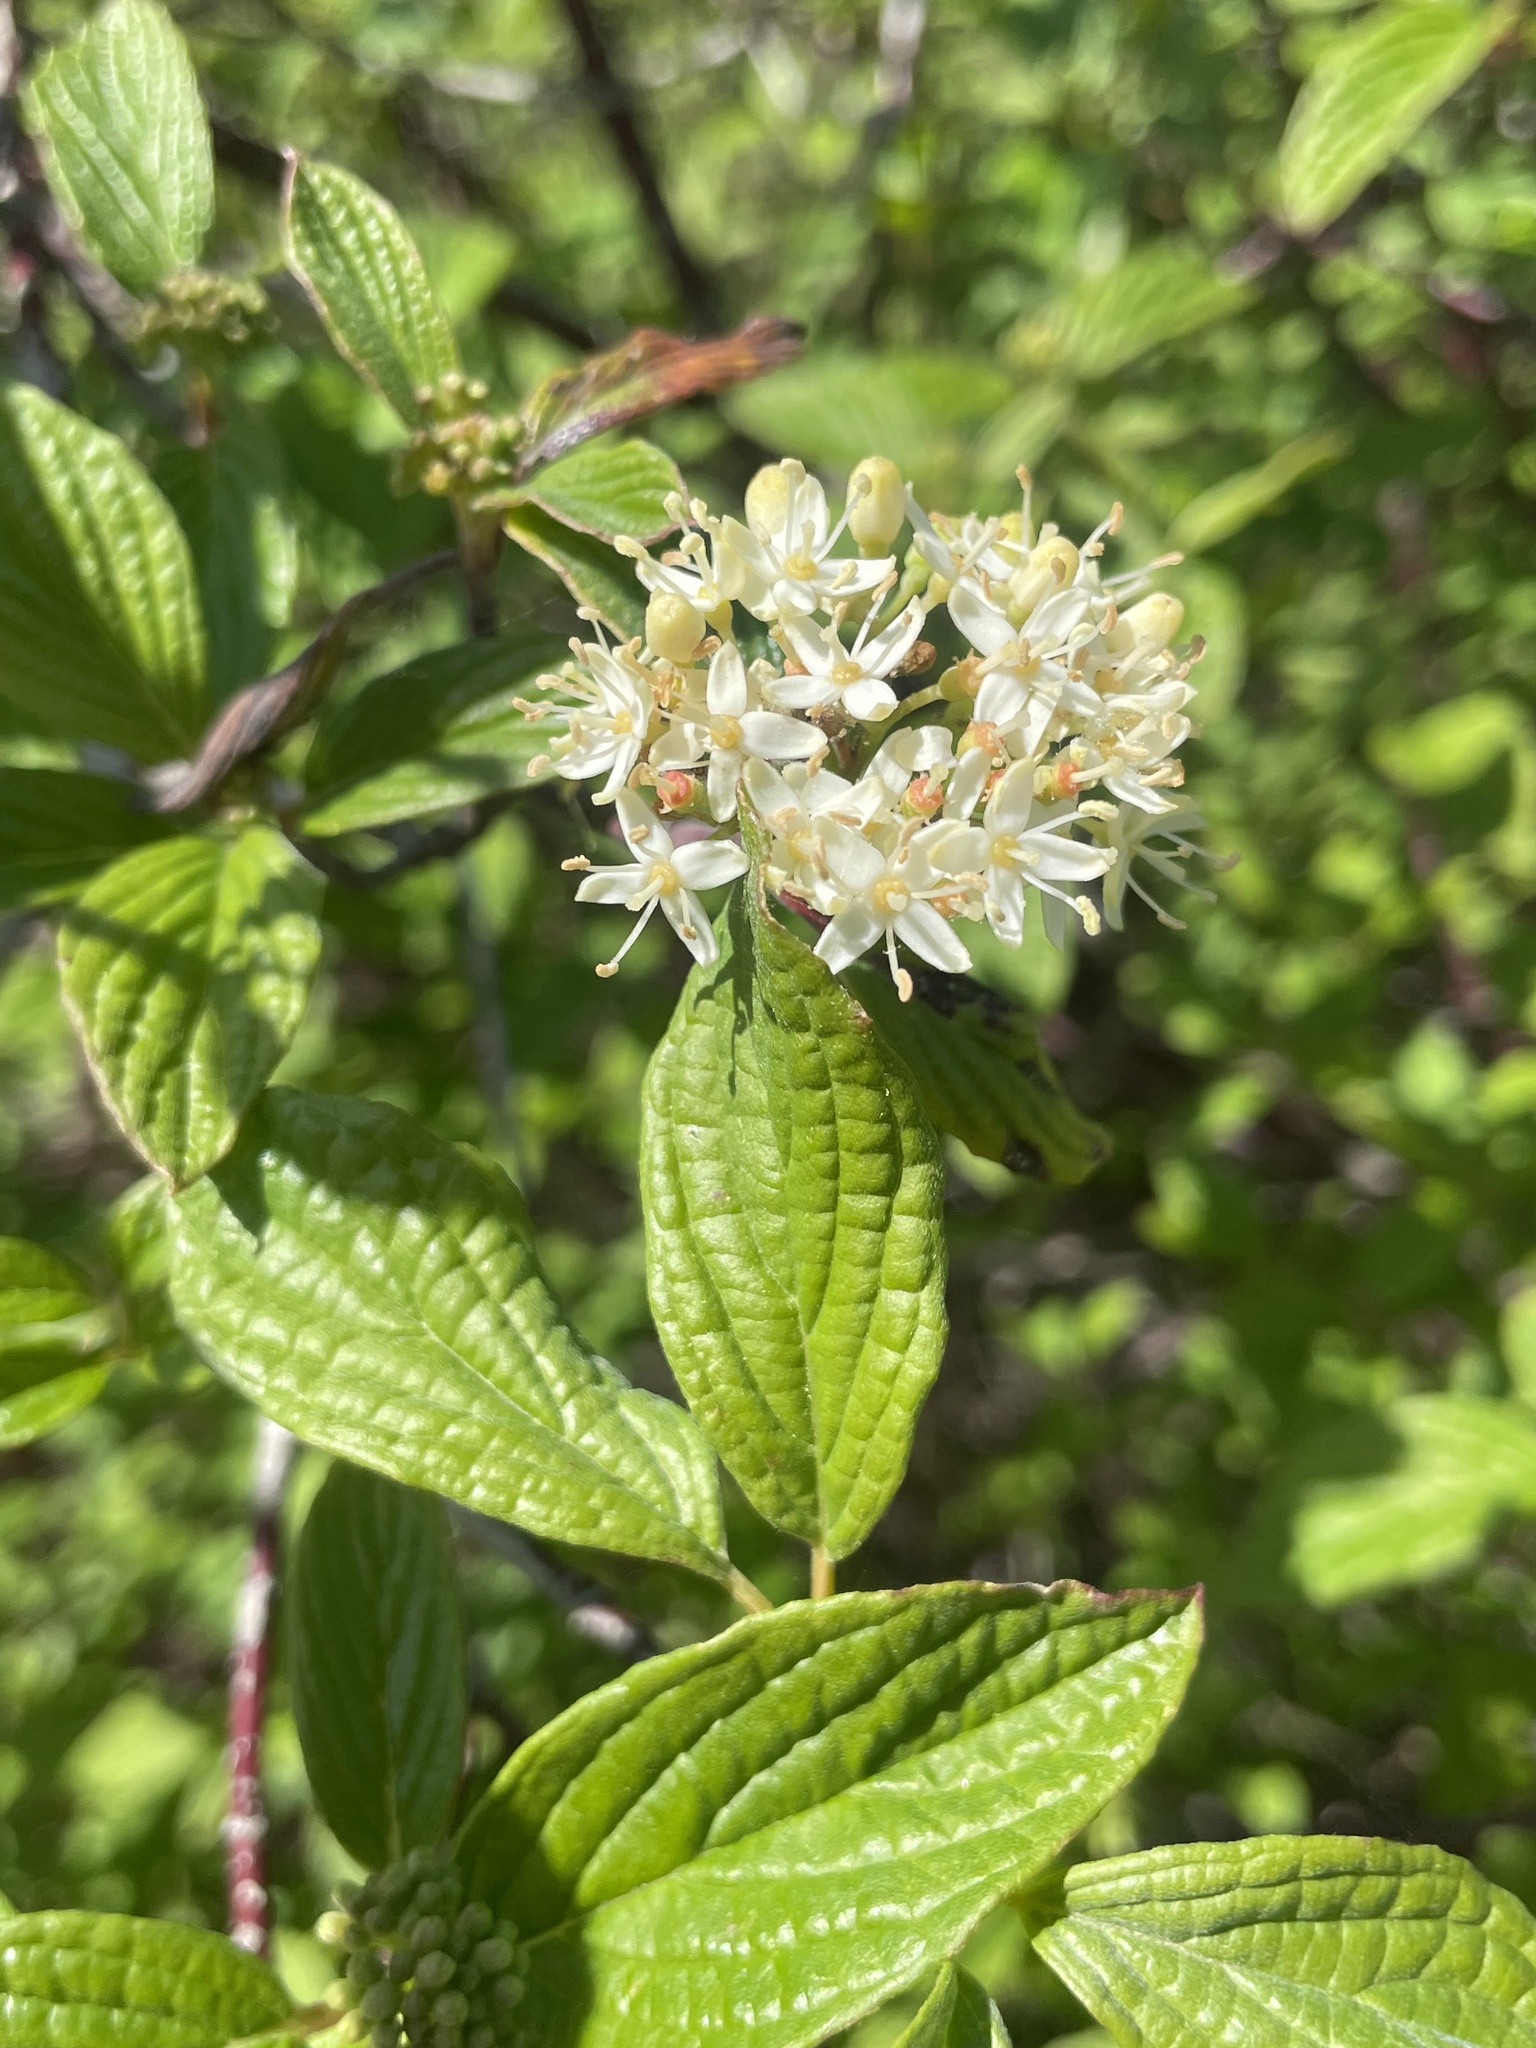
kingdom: Plantae
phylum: Tracheophyta
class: Magnoliopsida
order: Cornales
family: Cornaceae
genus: Cornus
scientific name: Cornus sericea
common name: Red-osier dogwood
